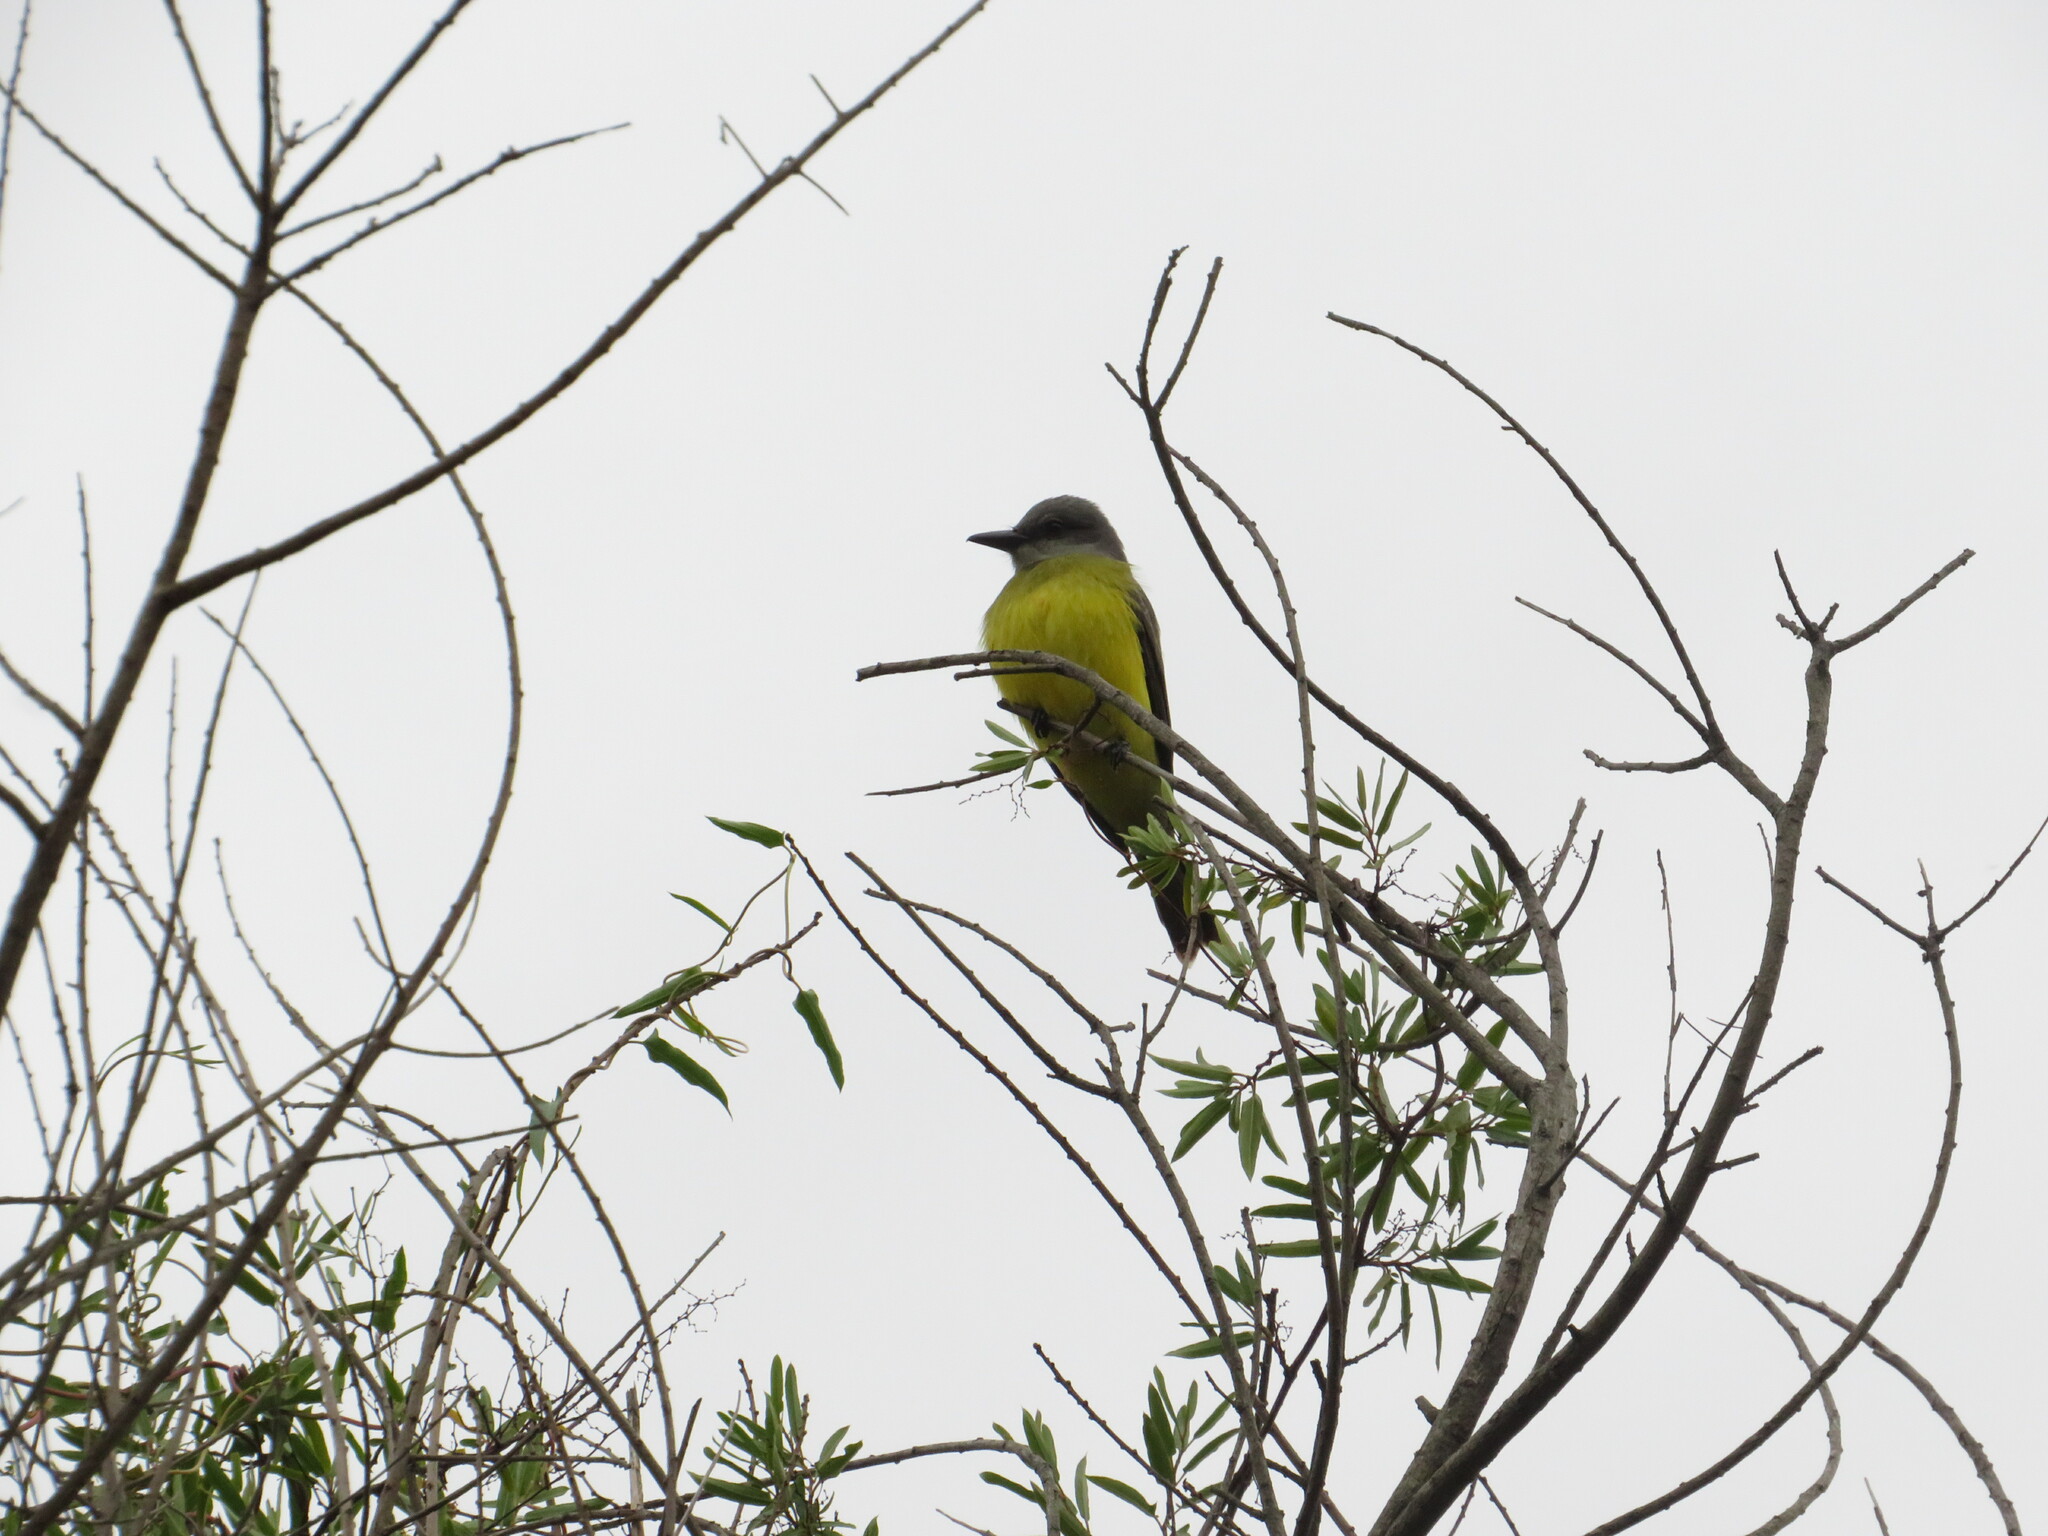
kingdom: Animalia
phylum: Chordata
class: Aves
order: Passeriformes
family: Tyrannidae
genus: Tyrannus
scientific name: Tyrannus melancholicus
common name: Tropical kingbird
